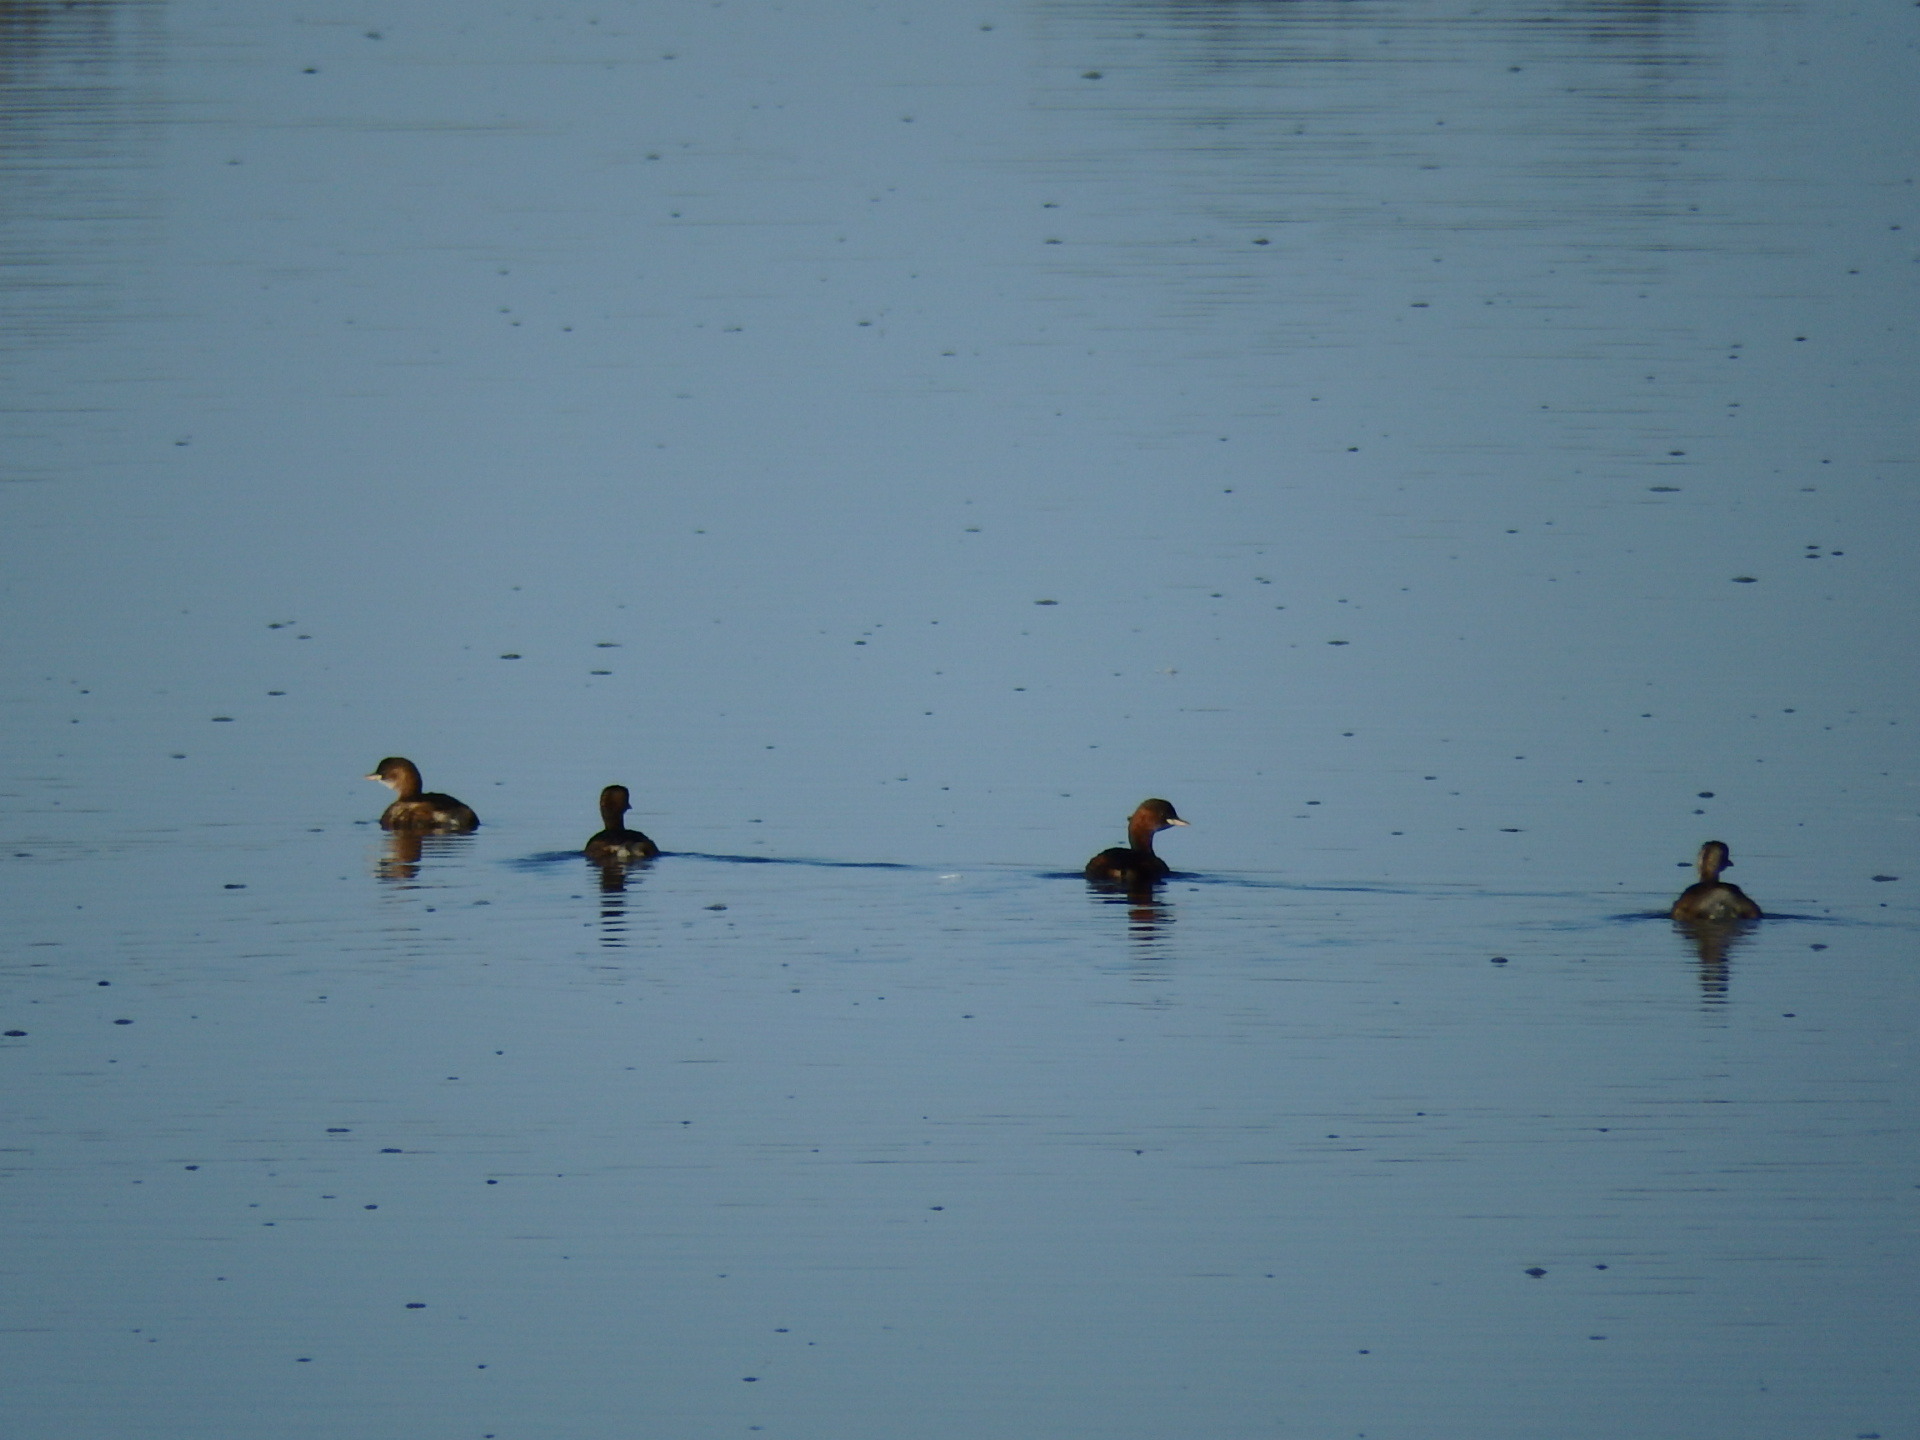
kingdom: Animalia
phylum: Chordata
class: Aves
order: Podicipediformes
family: Podicipedidae
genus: Tachybaptus
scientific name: Tachybaptus ruficollis
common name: Little grebe
